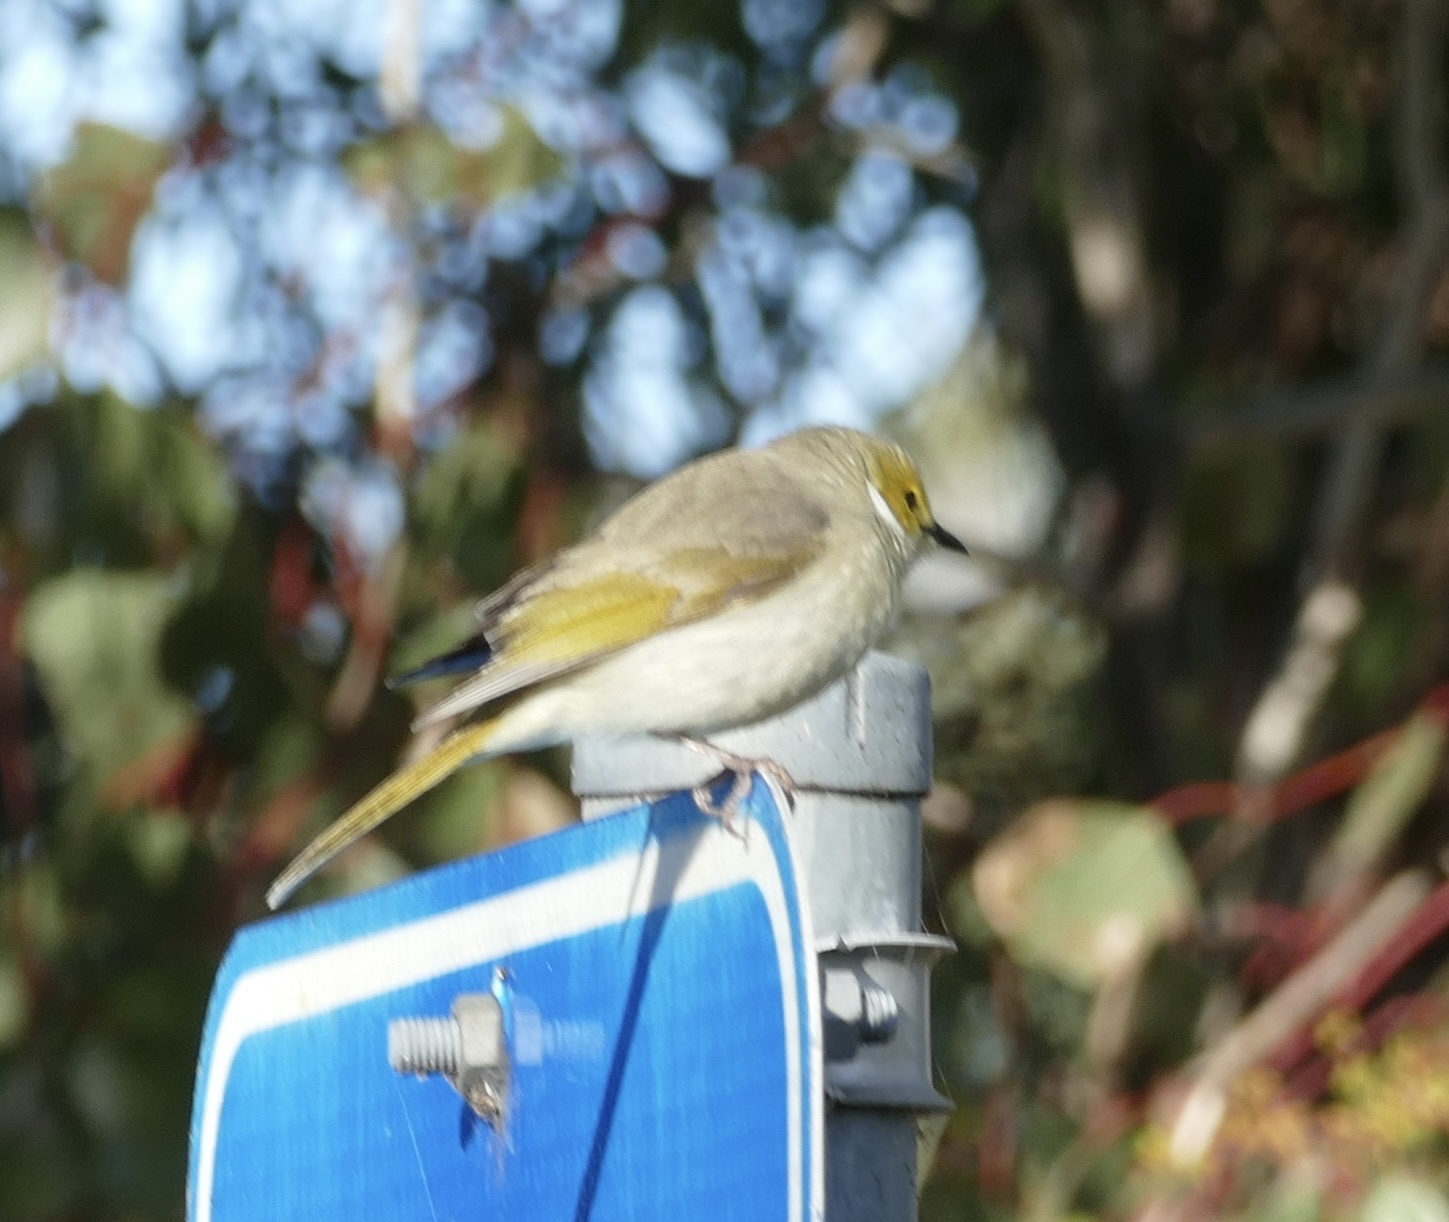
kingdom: Animalia
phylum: Chordata
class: Aves
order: Passeriformes
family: Meliphagidae
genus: Ptilotula
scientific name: Ptilotula penicillata
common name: White-plumed honeyeater
